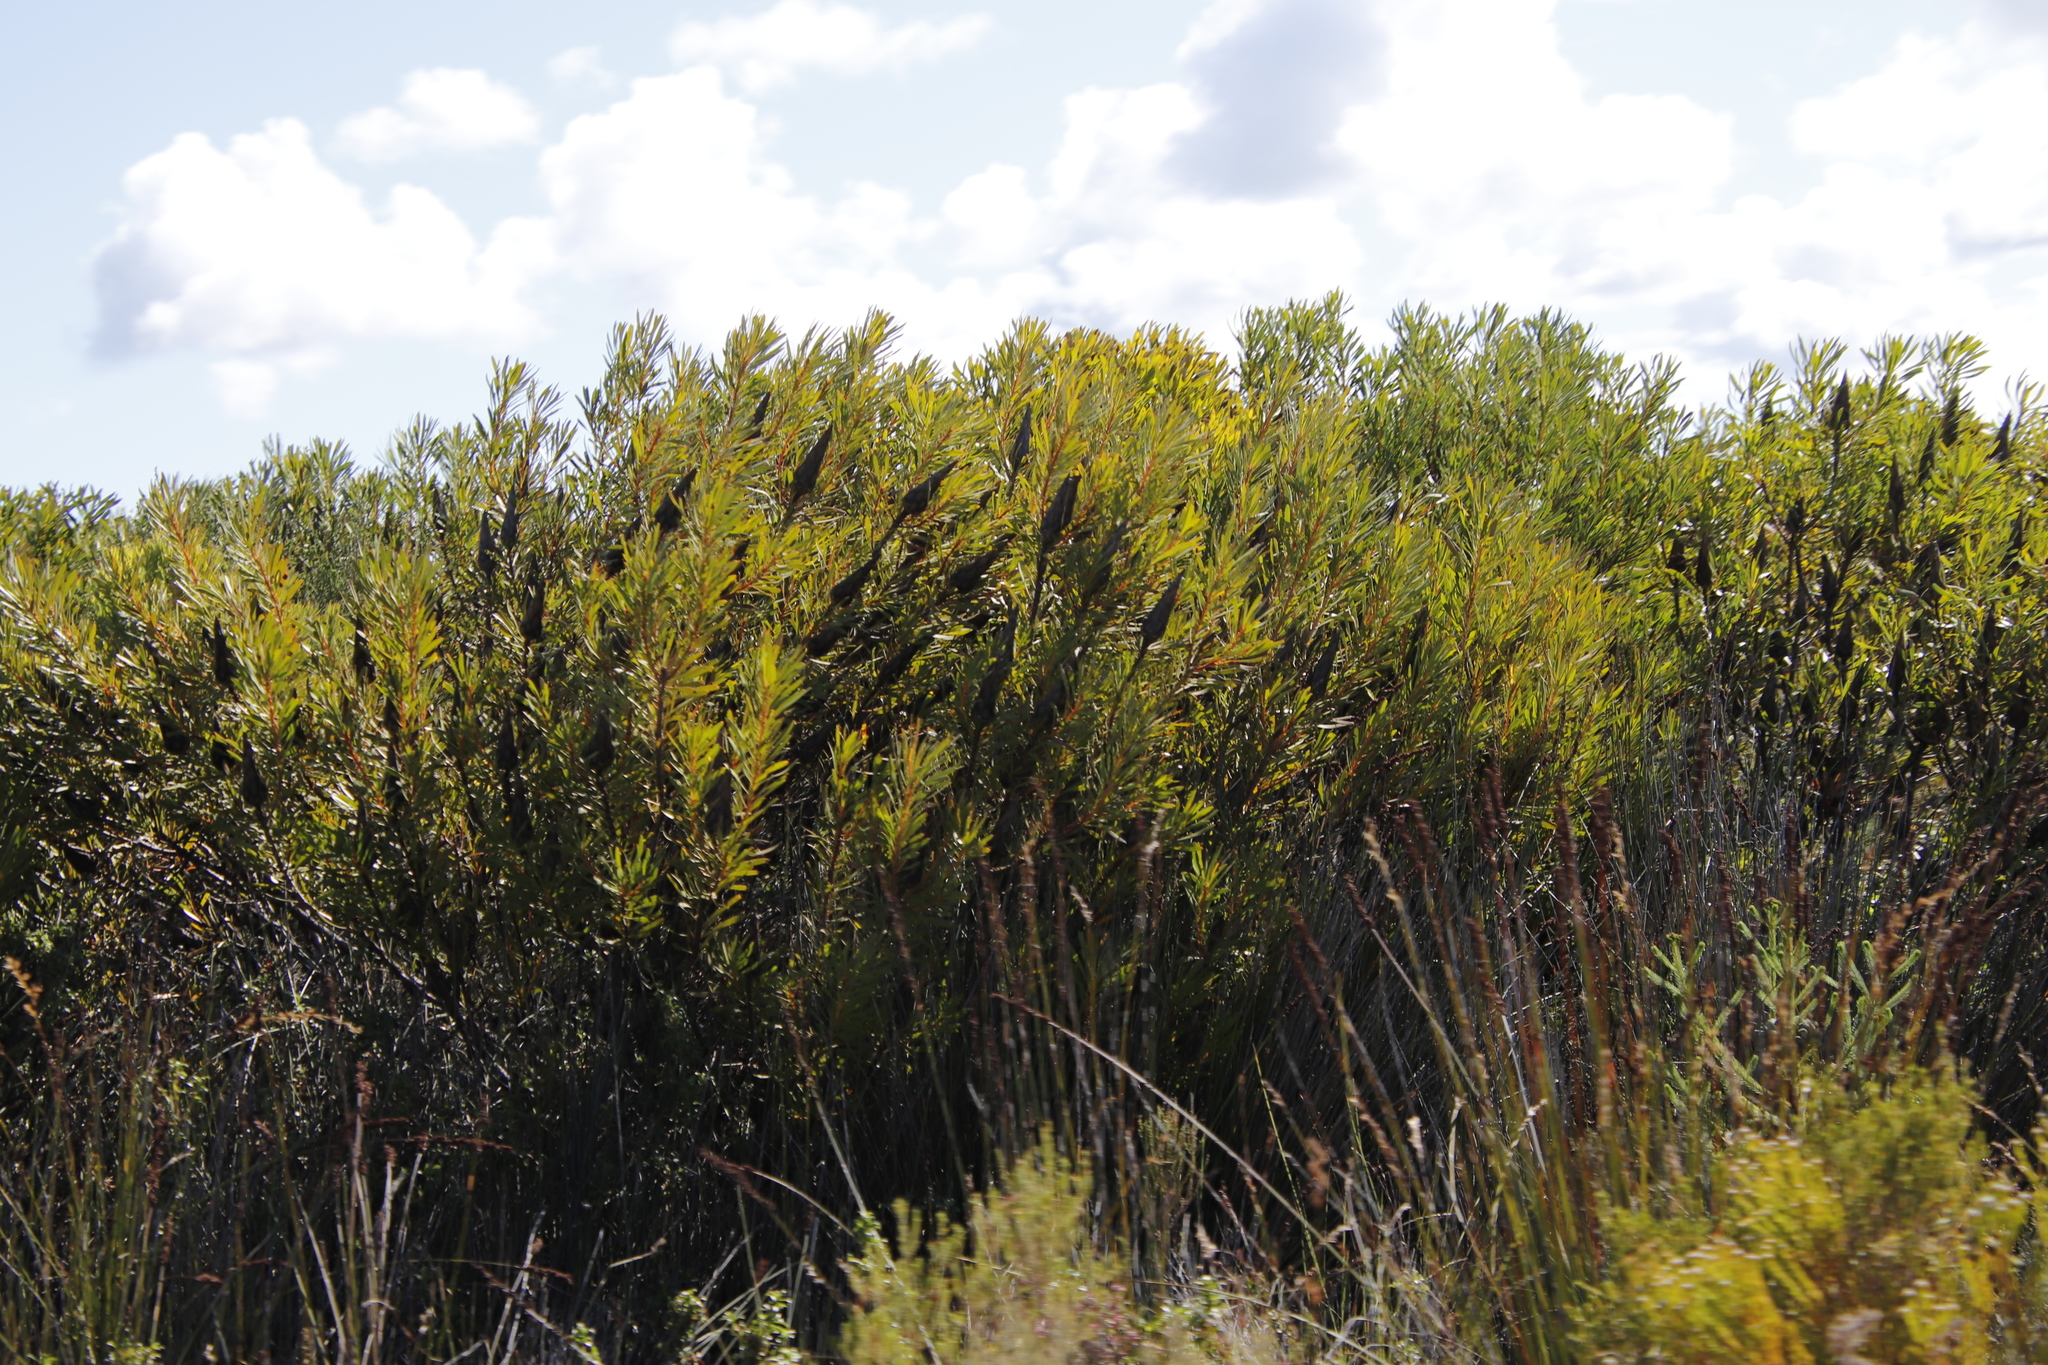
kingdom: Plantae
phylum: Tracheophyta
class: Magnoliopsida
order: Proteales
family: Proteaceae
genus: Protea
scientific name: Protea repens
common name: Sugarbush
